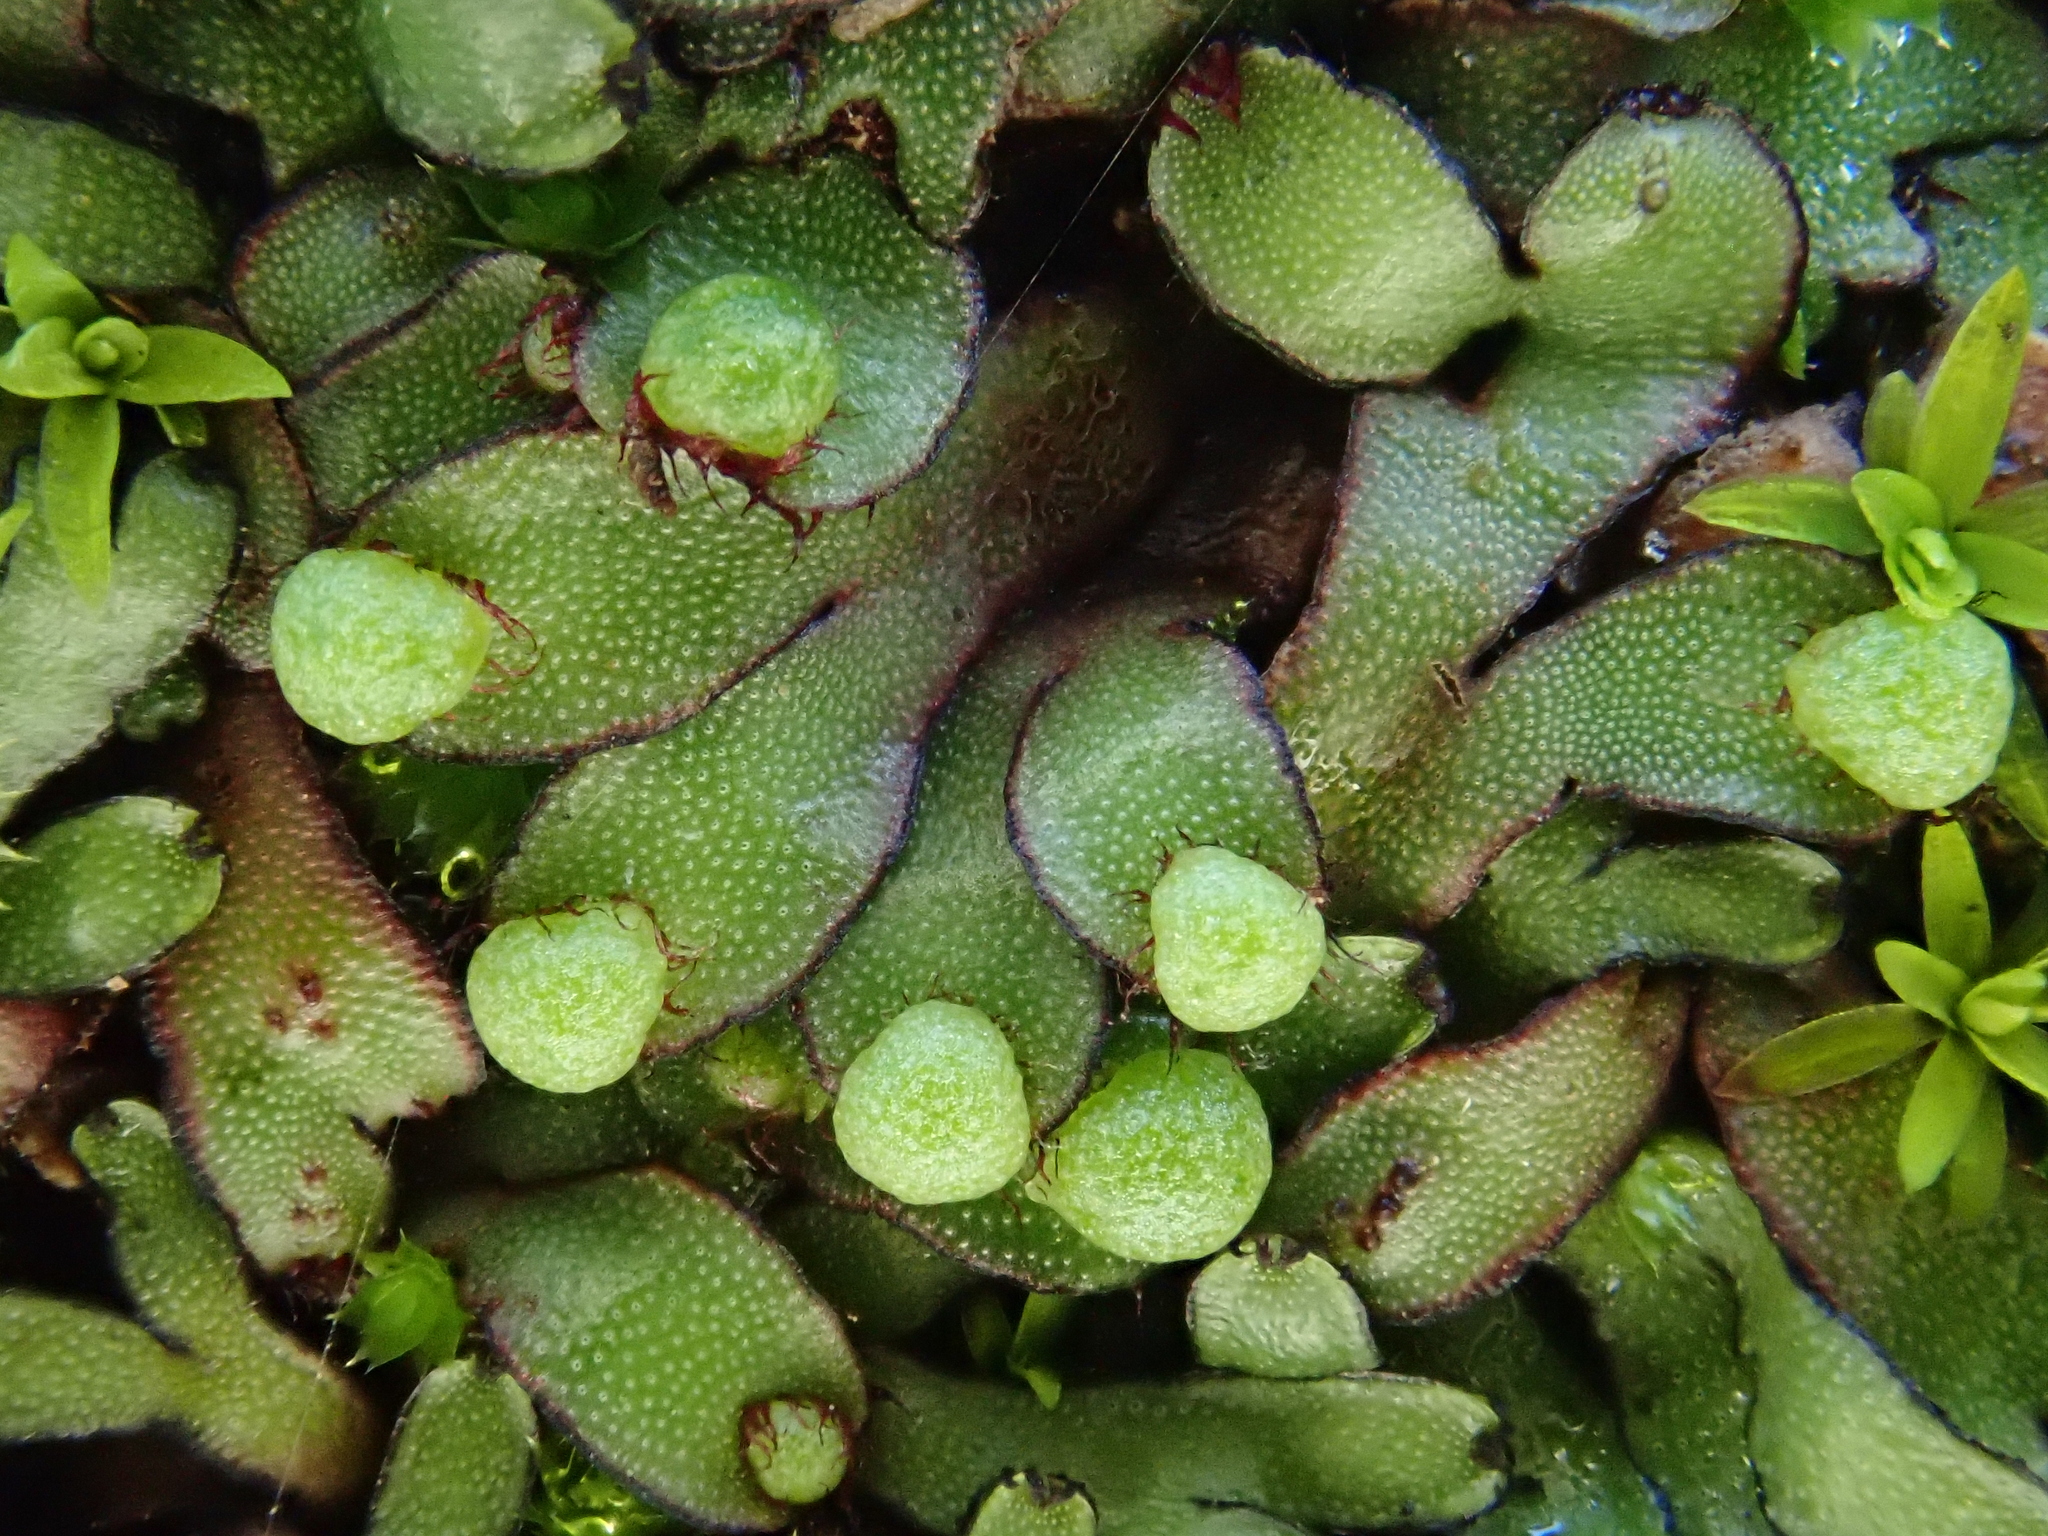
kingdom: Plantae
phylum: Marchantiophyta
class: Marchantiopsida
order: Marchantiales
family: Aytoniaceae
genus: Mannia
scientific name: Mannia androgyna
